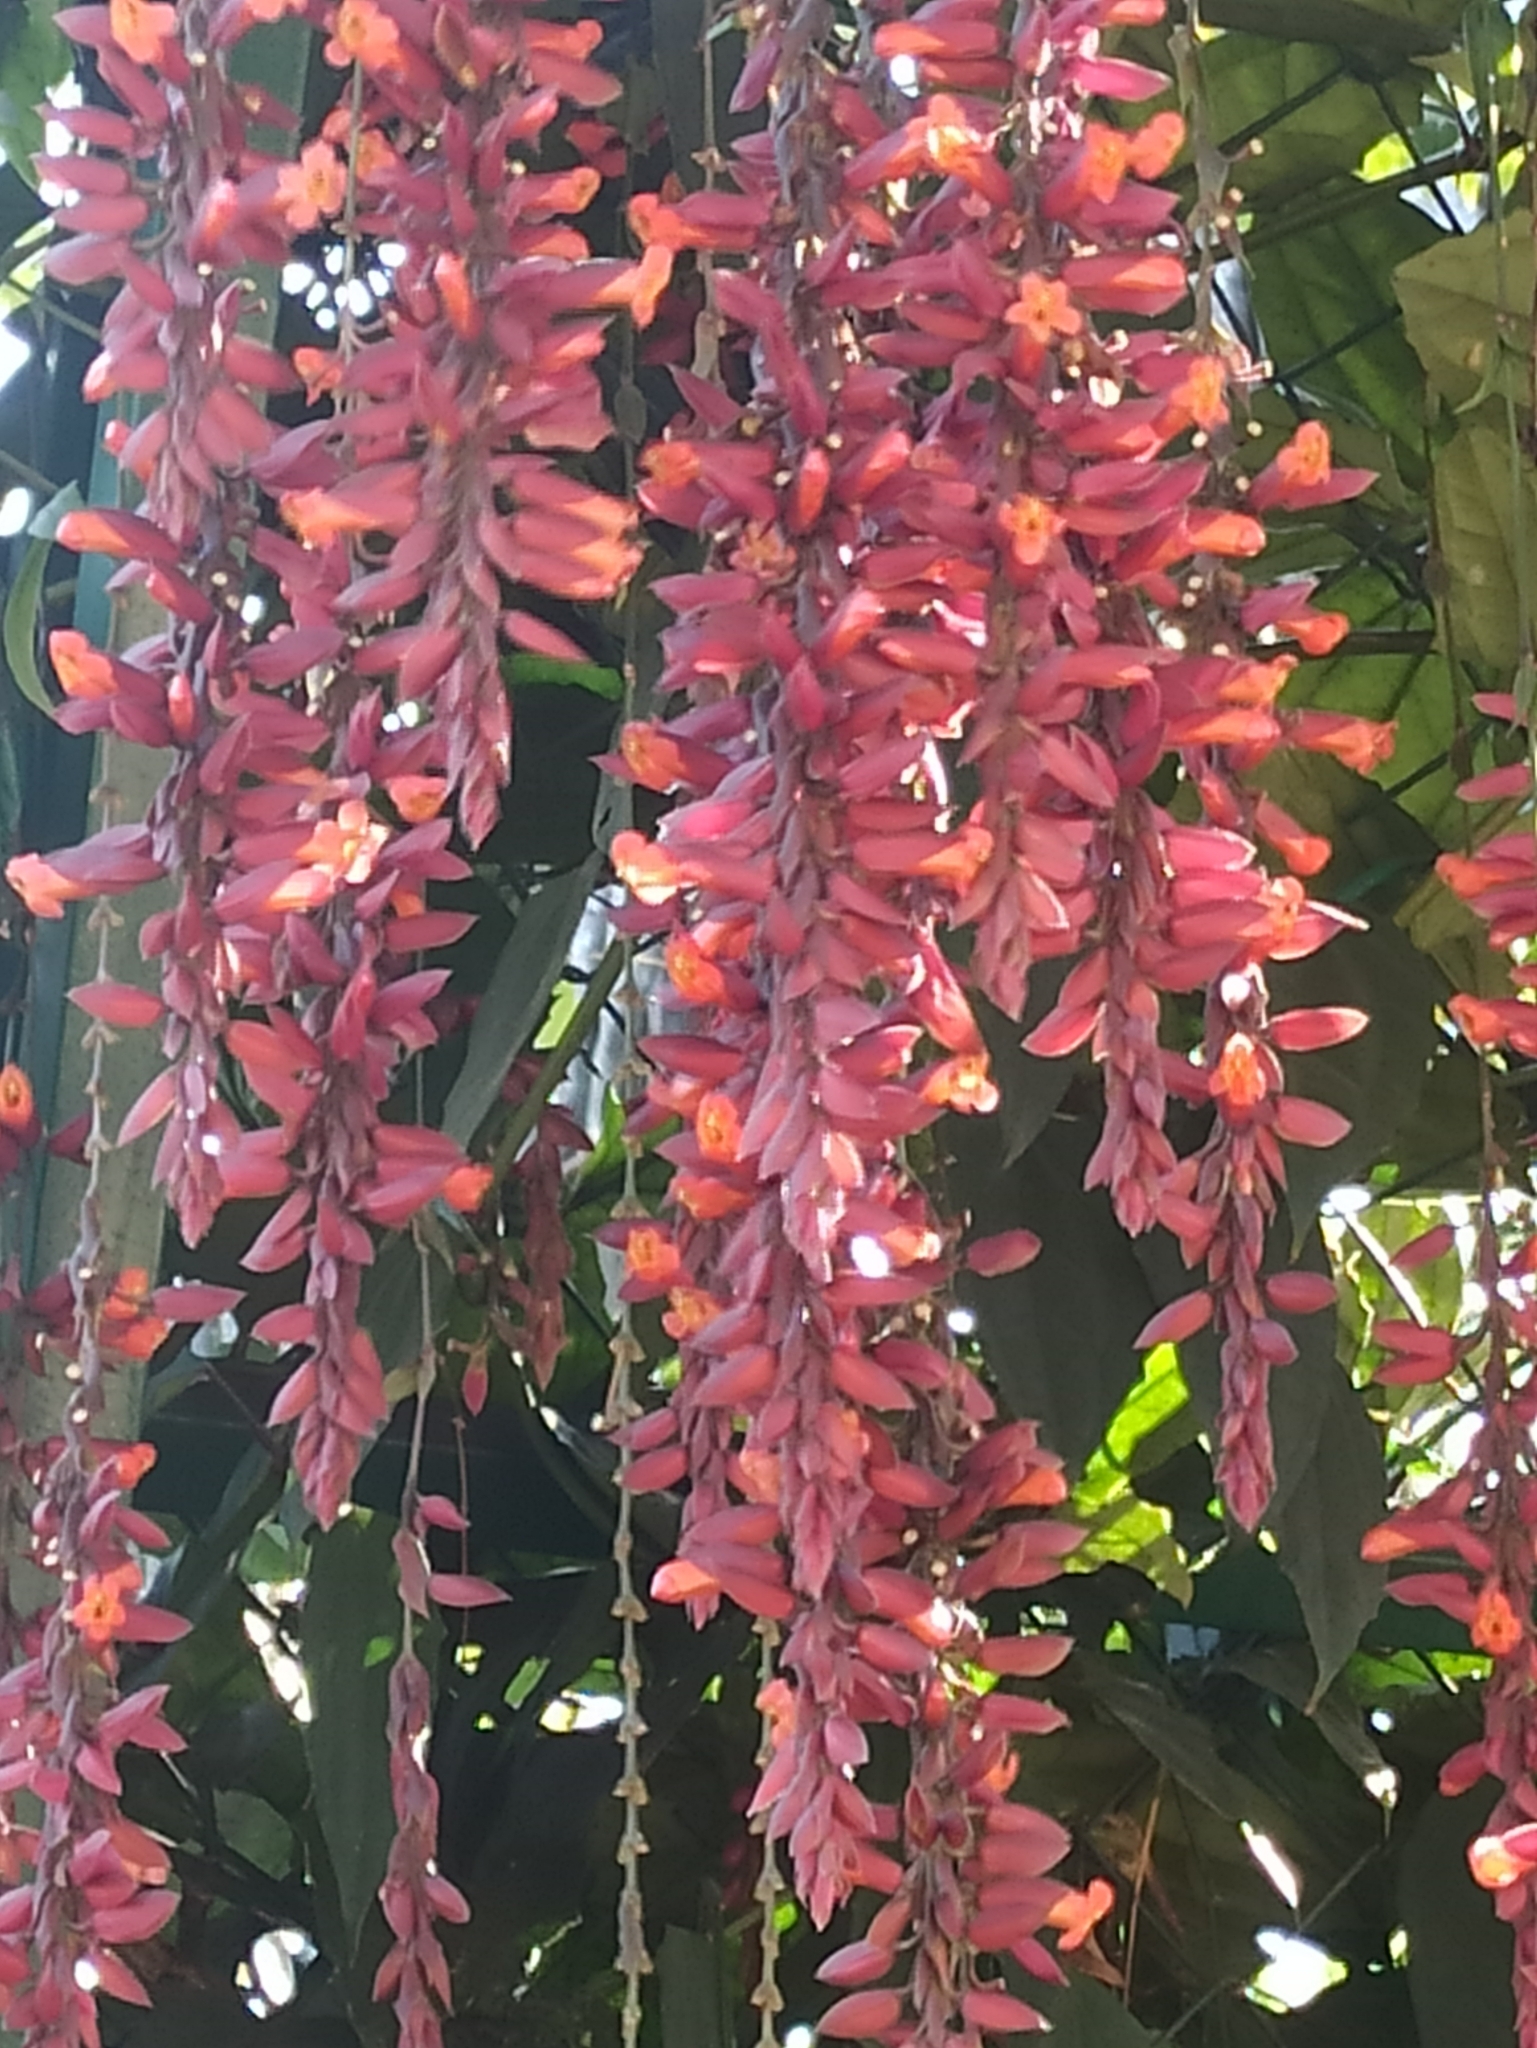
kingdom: Plantae
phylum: Tracheophyta
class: Magnoliopsida
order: Lamiales
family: Acanthaceae
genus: Thunbergia
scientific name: Thunbergia coccinea
